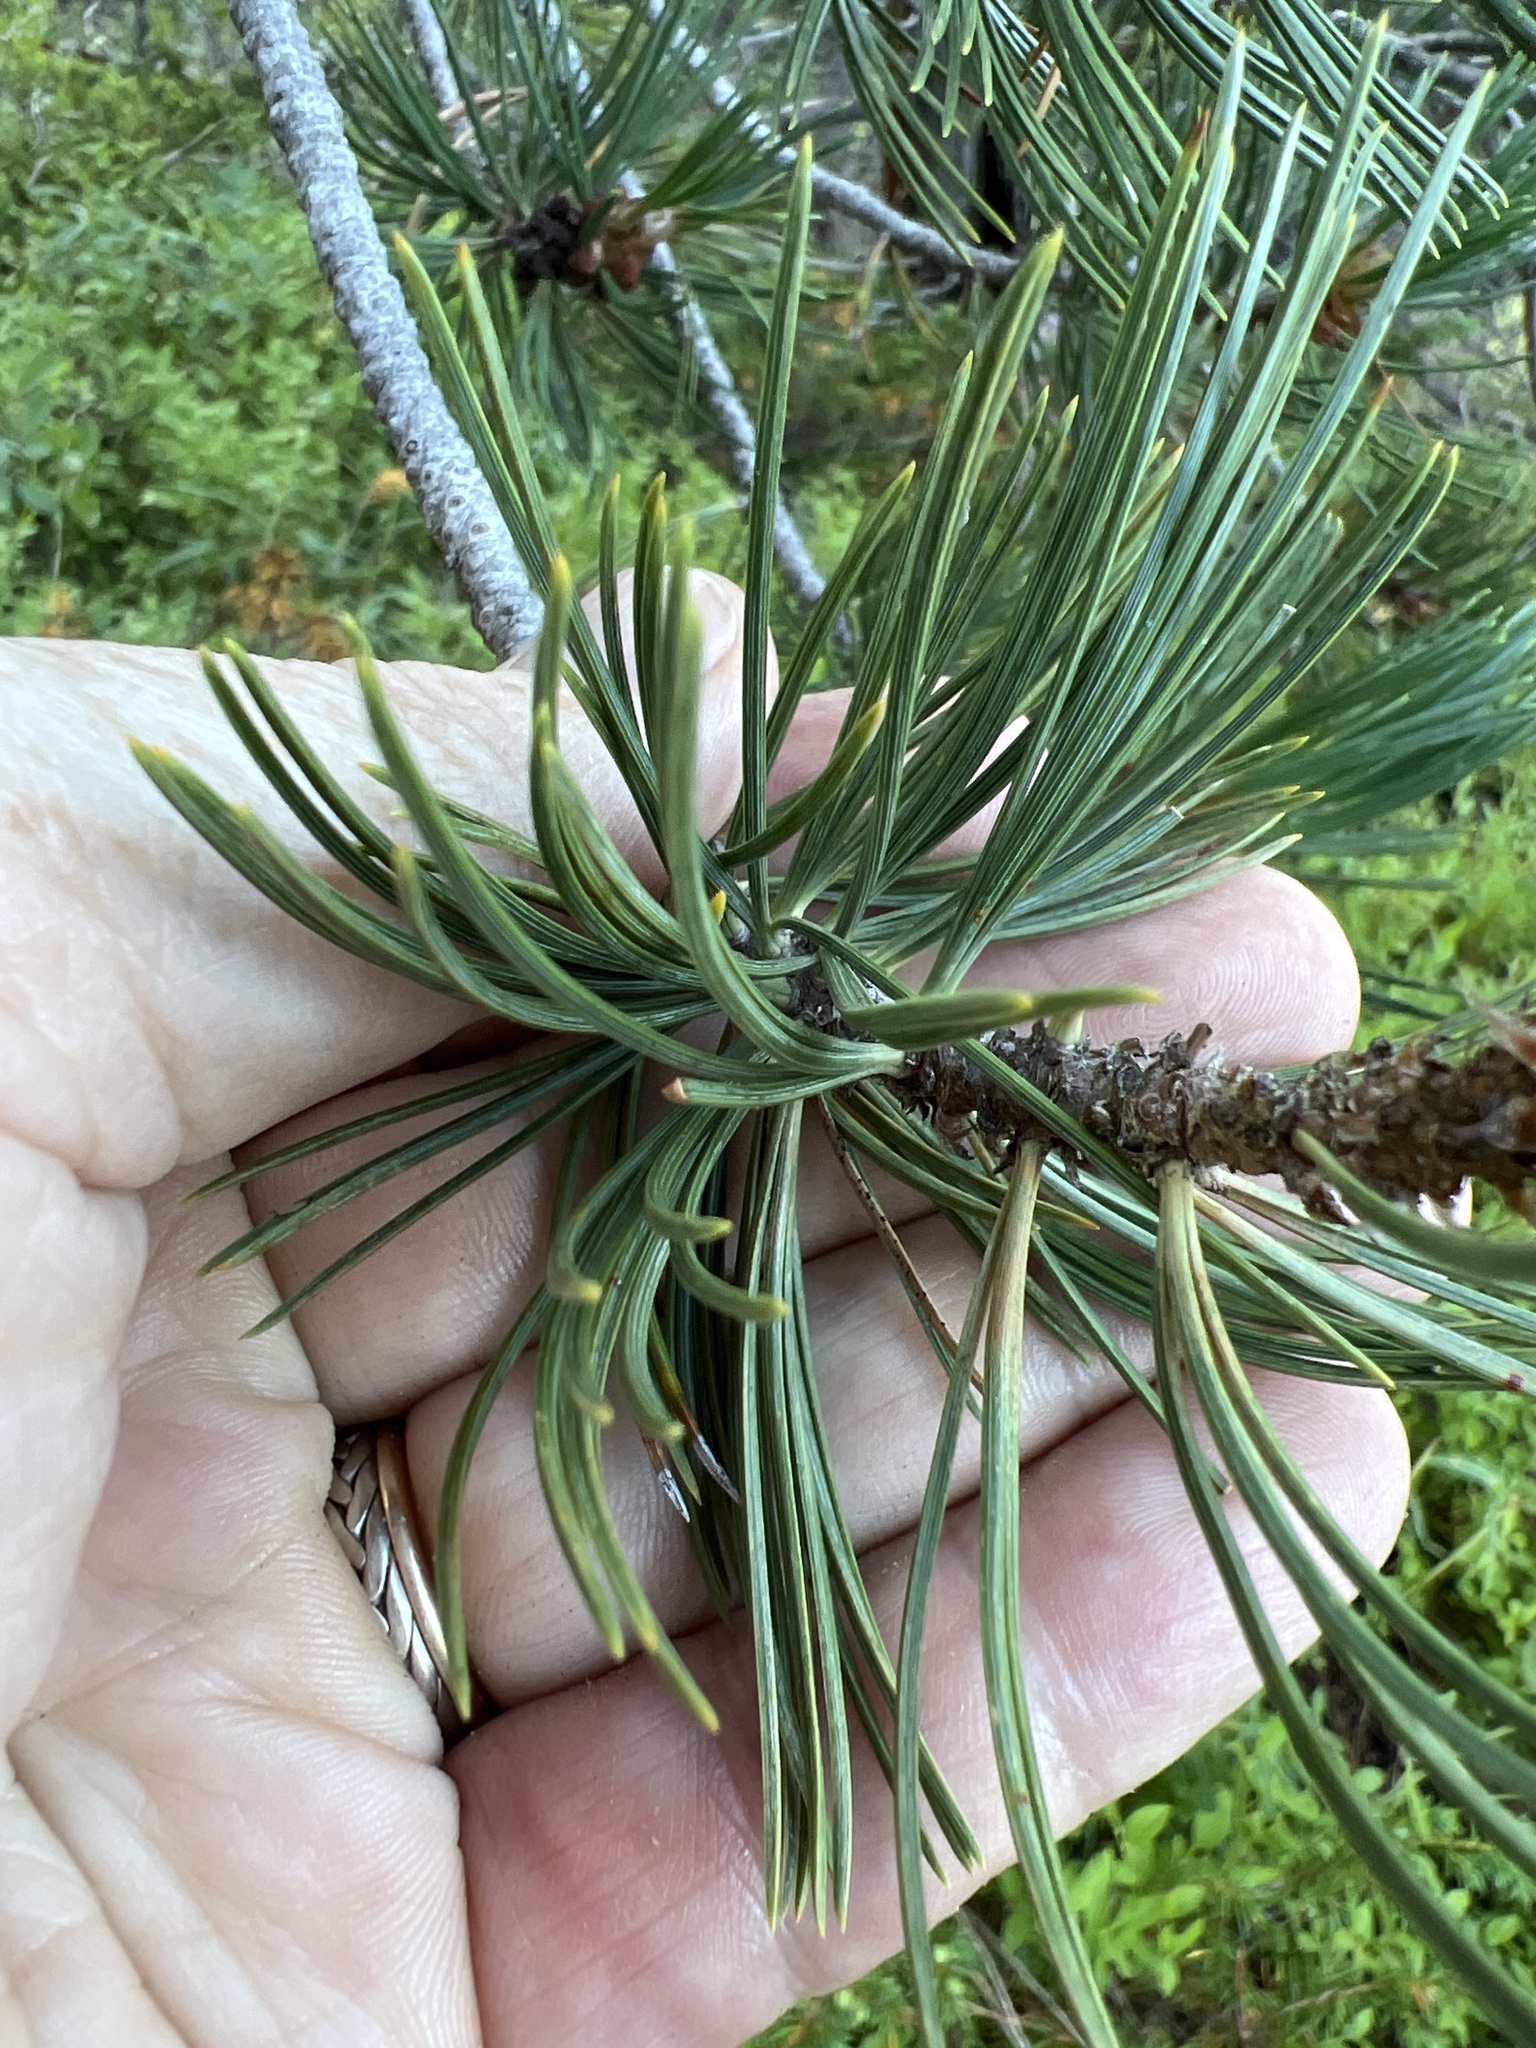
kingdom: Plantae
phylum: Tracheophyta
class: Pinopsida
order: Pinales
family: Pinaceae
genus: Pinus
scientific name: Pinus flexilis
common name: Limber pine
